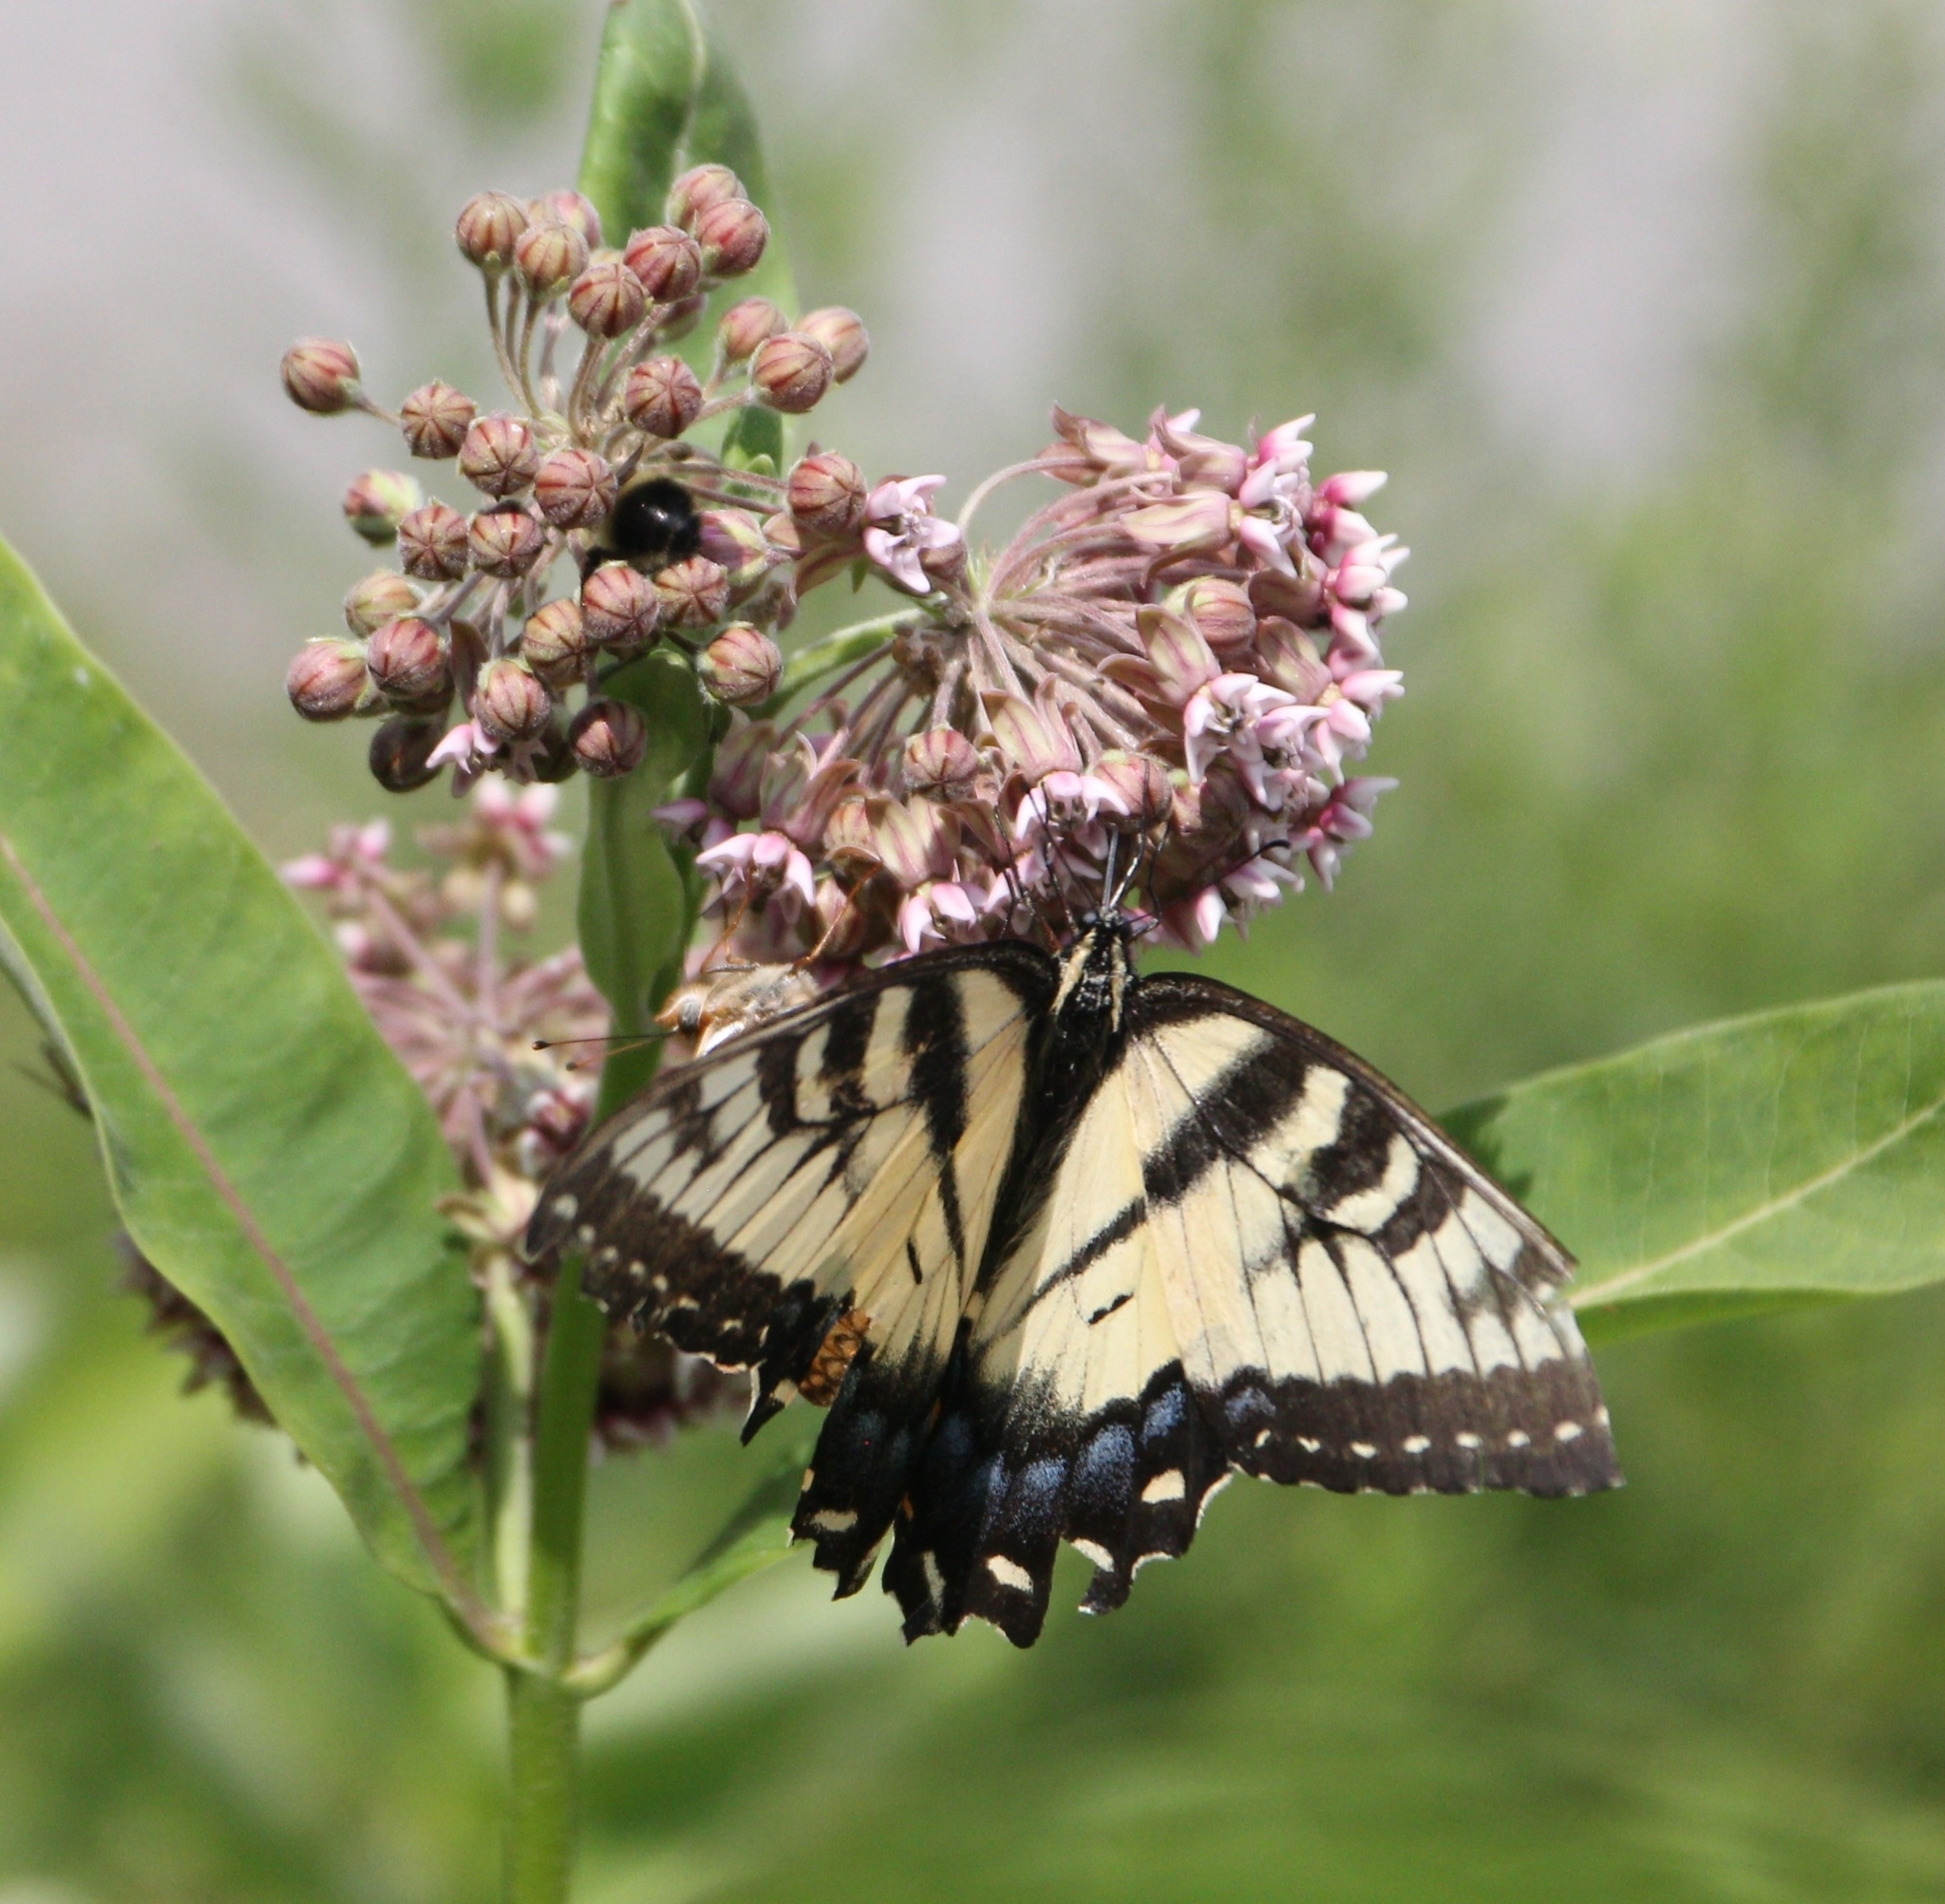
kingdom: Animalia
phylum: Arthropoda
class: Insecta
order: Lepidoptera
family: Papilionidae
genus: Papilio
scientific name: Papilio glaucus
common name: Tiger swallowtail
